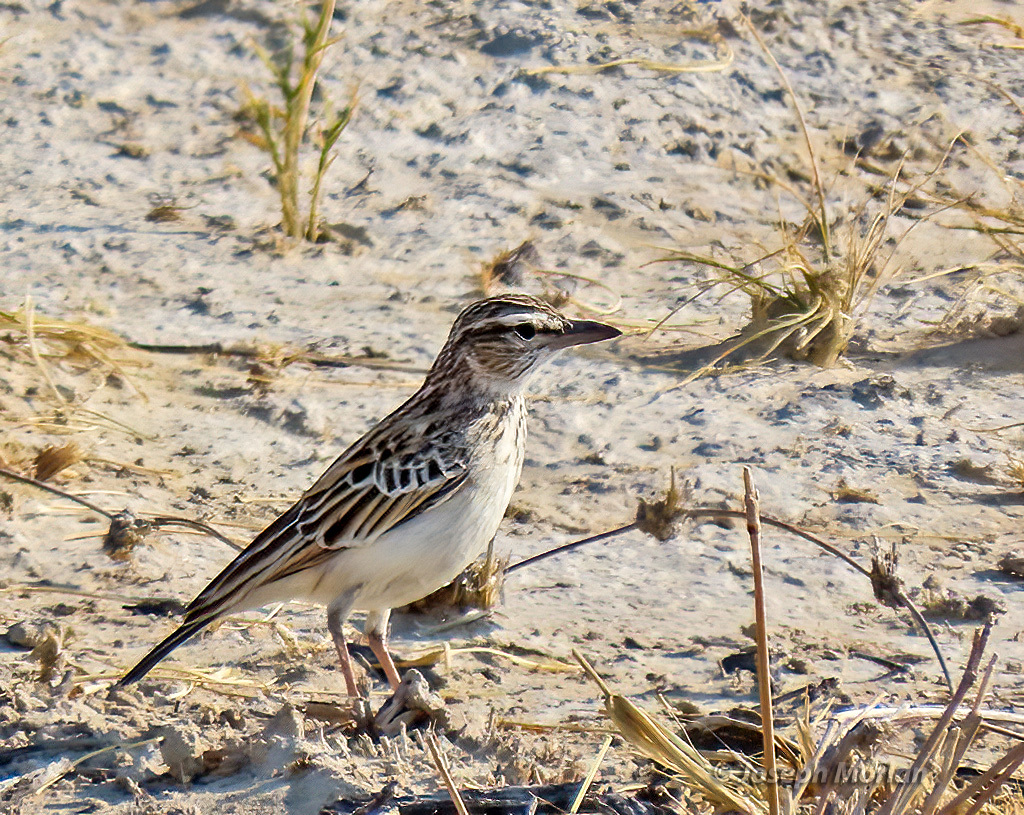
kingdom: Animalia
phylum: Chordata
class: Aves
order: Passeriformes
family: Alaudidae
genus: Calendulauda
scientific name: Calendulauda sabota
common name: Sabota lark
